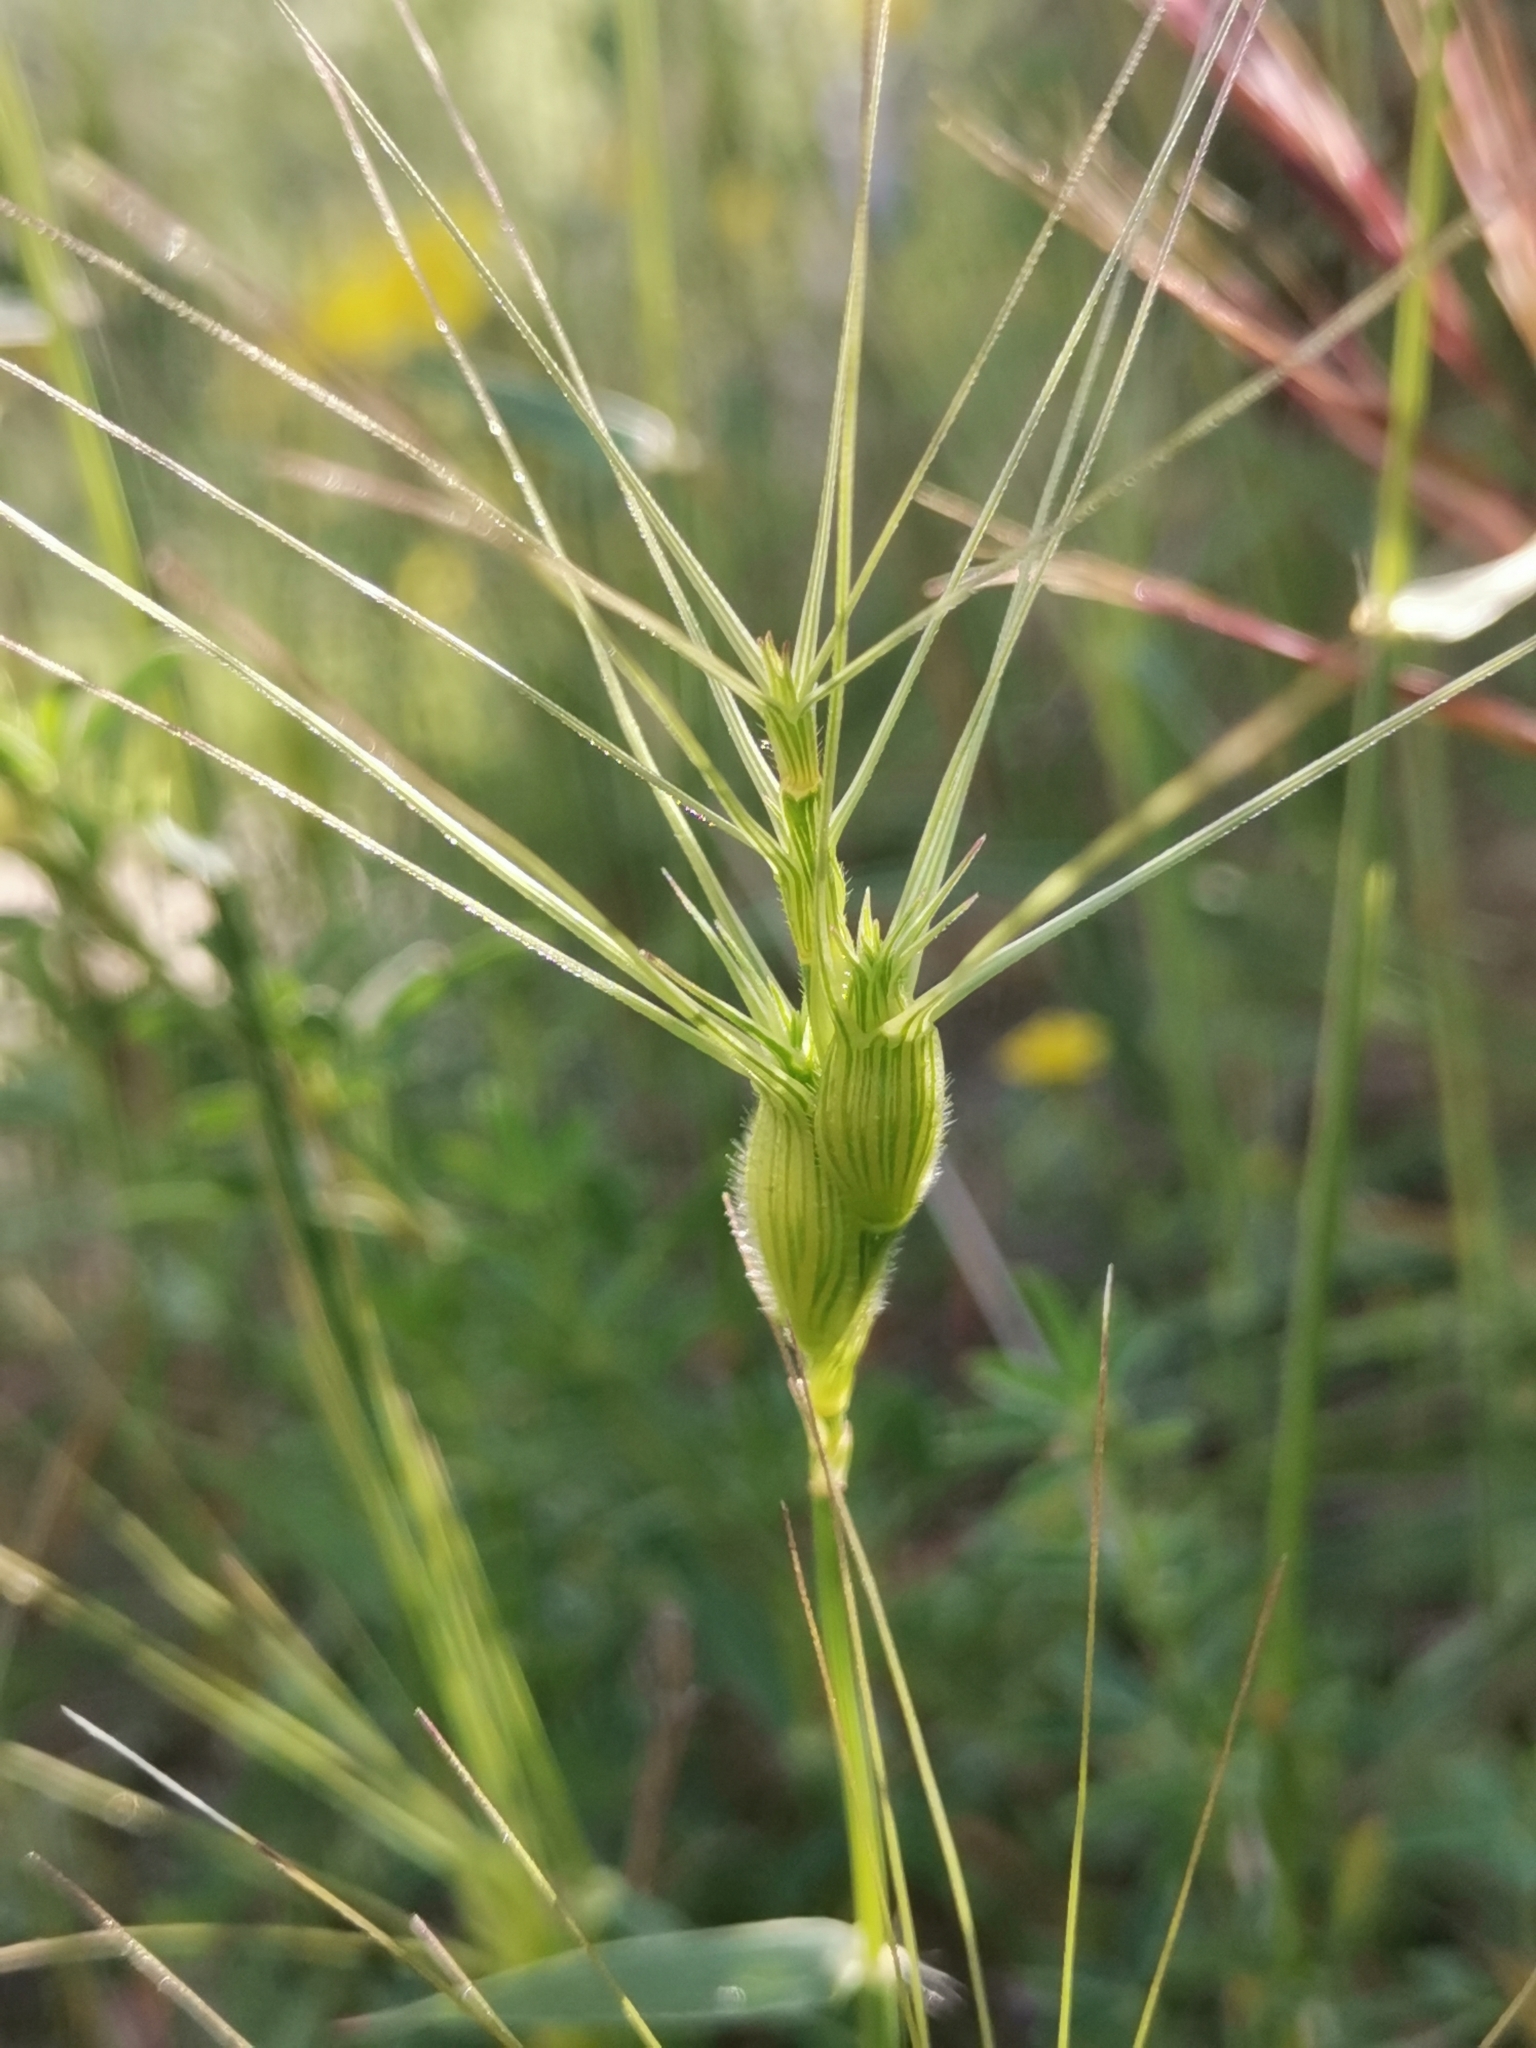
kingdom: Plantae
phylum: Tracheophyta
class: Liliopsida
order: Poales
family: Poaceae
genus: Aegilops
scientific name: Aegilops neglecta
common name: Three-awn goat grass
